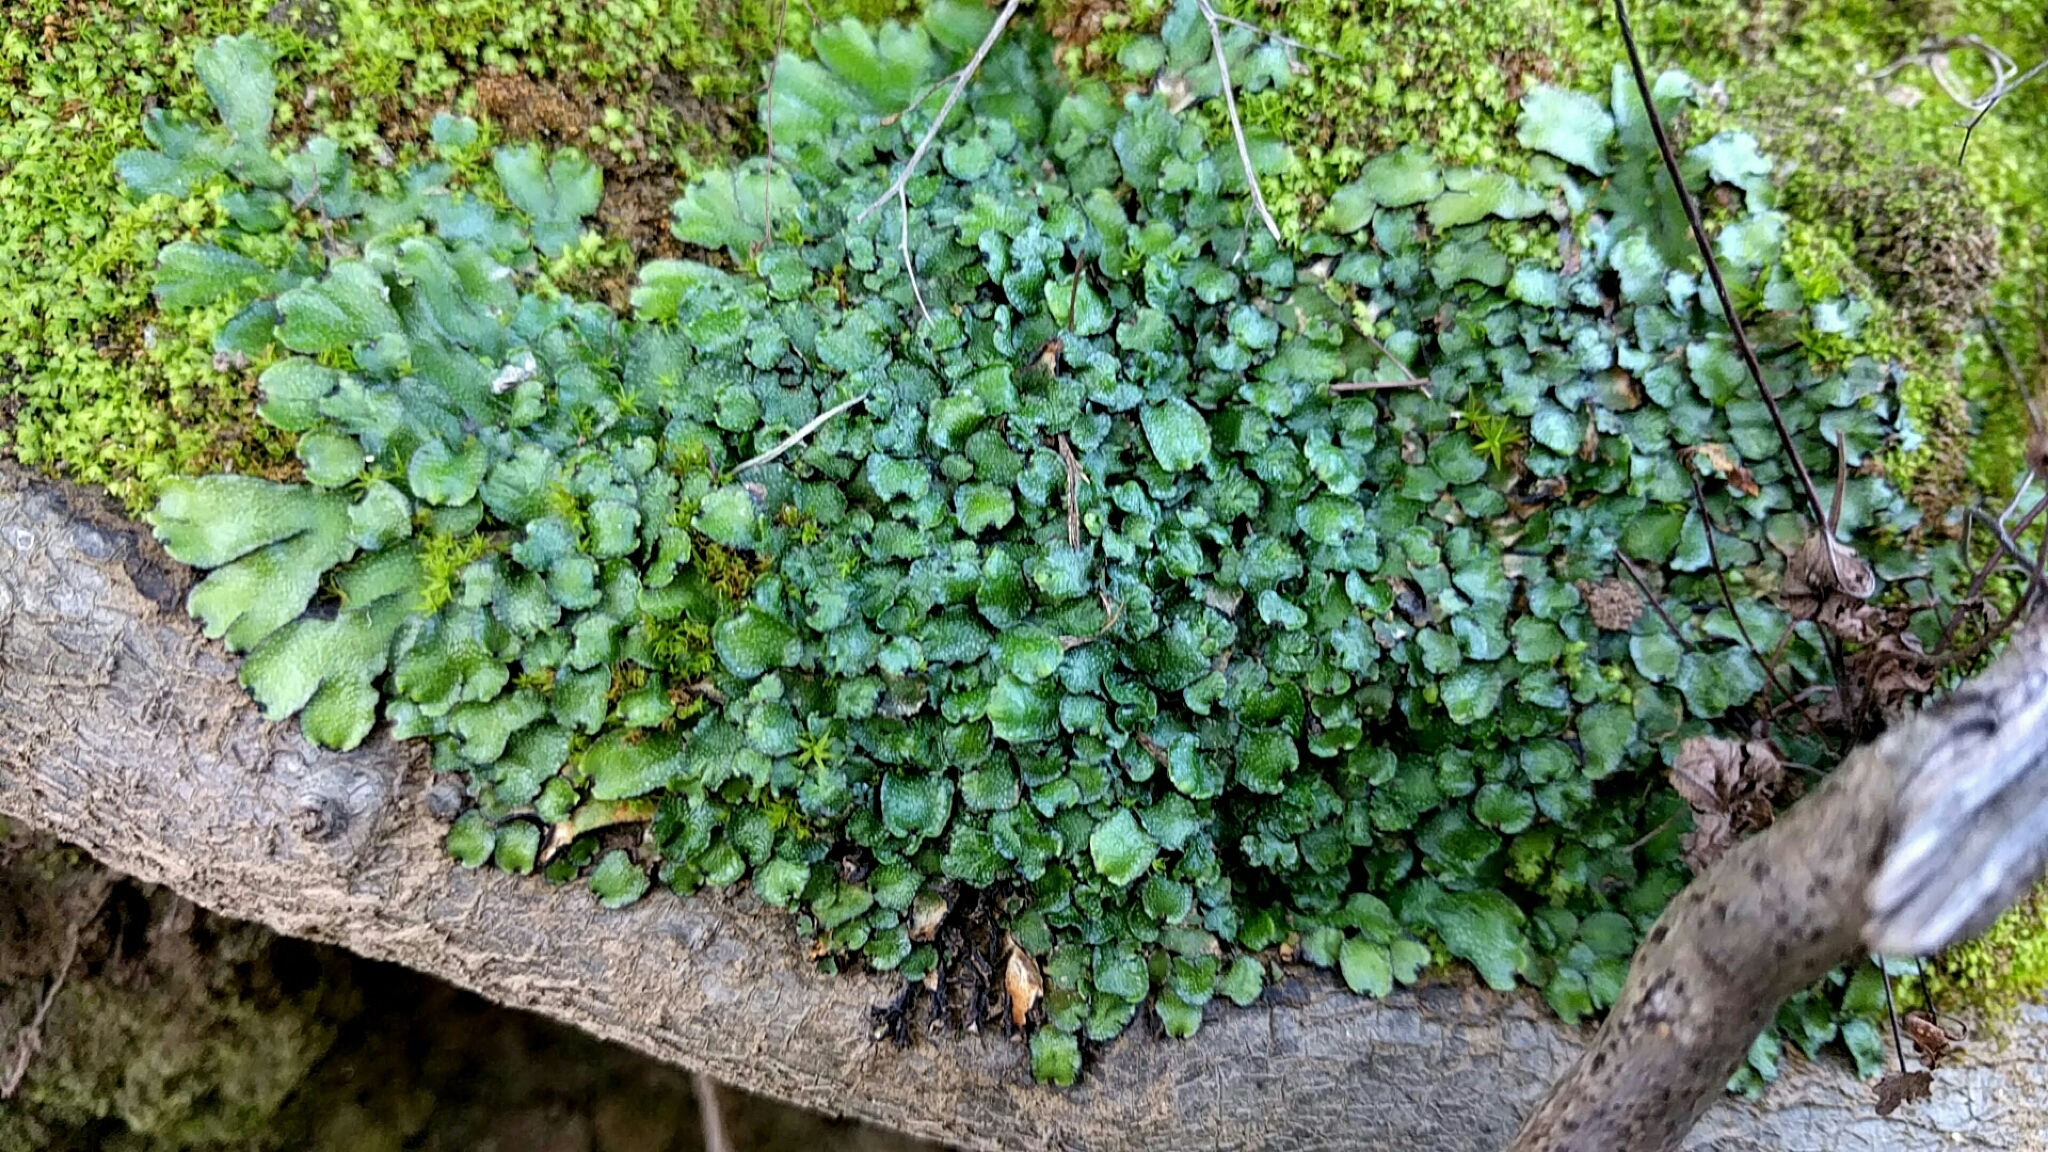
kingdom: Plantae
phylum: Marchantiophyta
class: Marchantiopsida
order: Marchantiales
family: Targioniaceae
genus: Targionia
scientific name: Targionia hypophylla
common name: Orobus-seed liverwort
